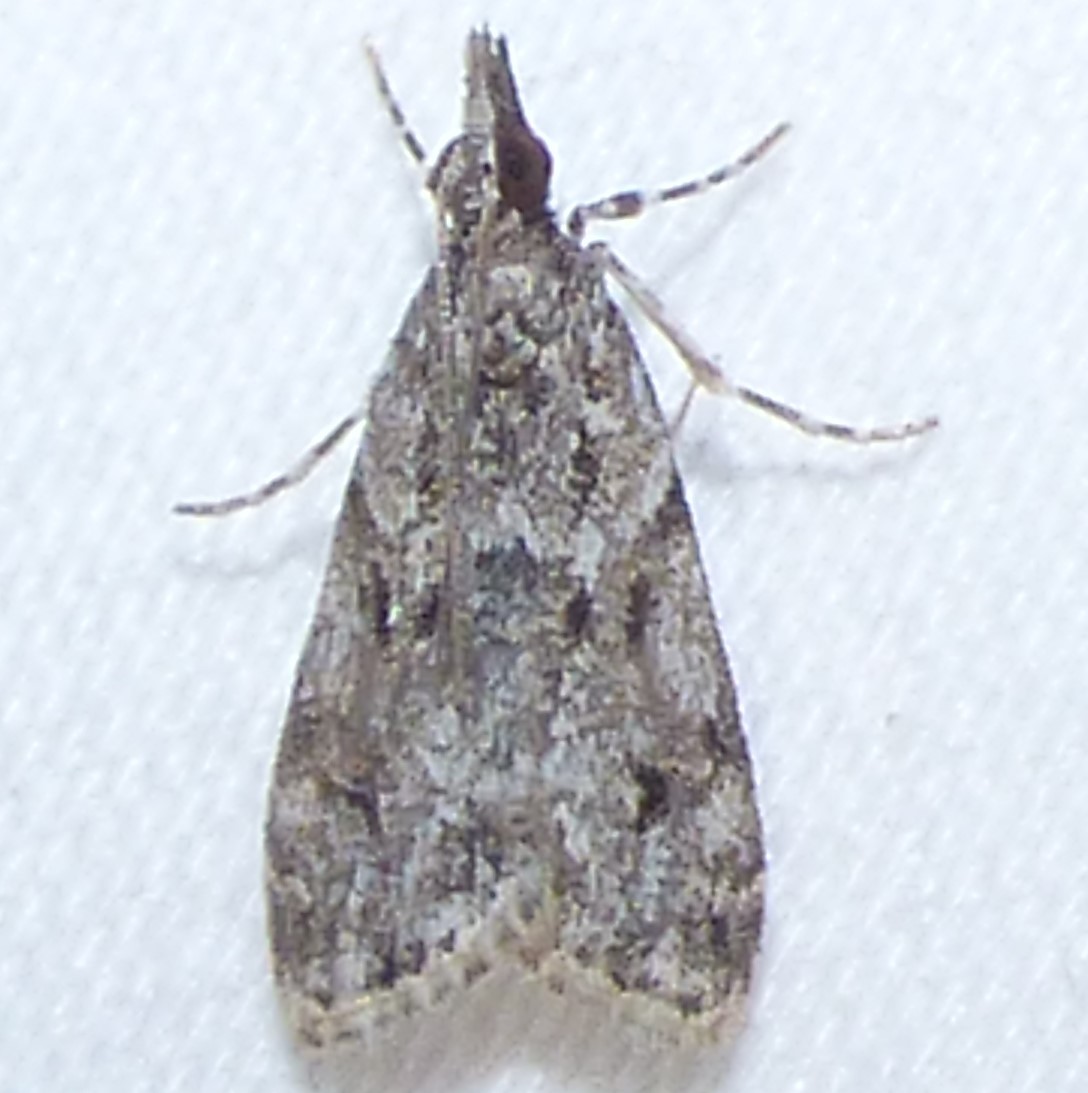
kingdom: Animalia
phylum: Arthropoda
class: Insecta
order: Lepidoptera
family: Crambidae
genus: Eudonia
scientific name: Eudonia heterosalis
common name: Mcdunnough's eudonia
